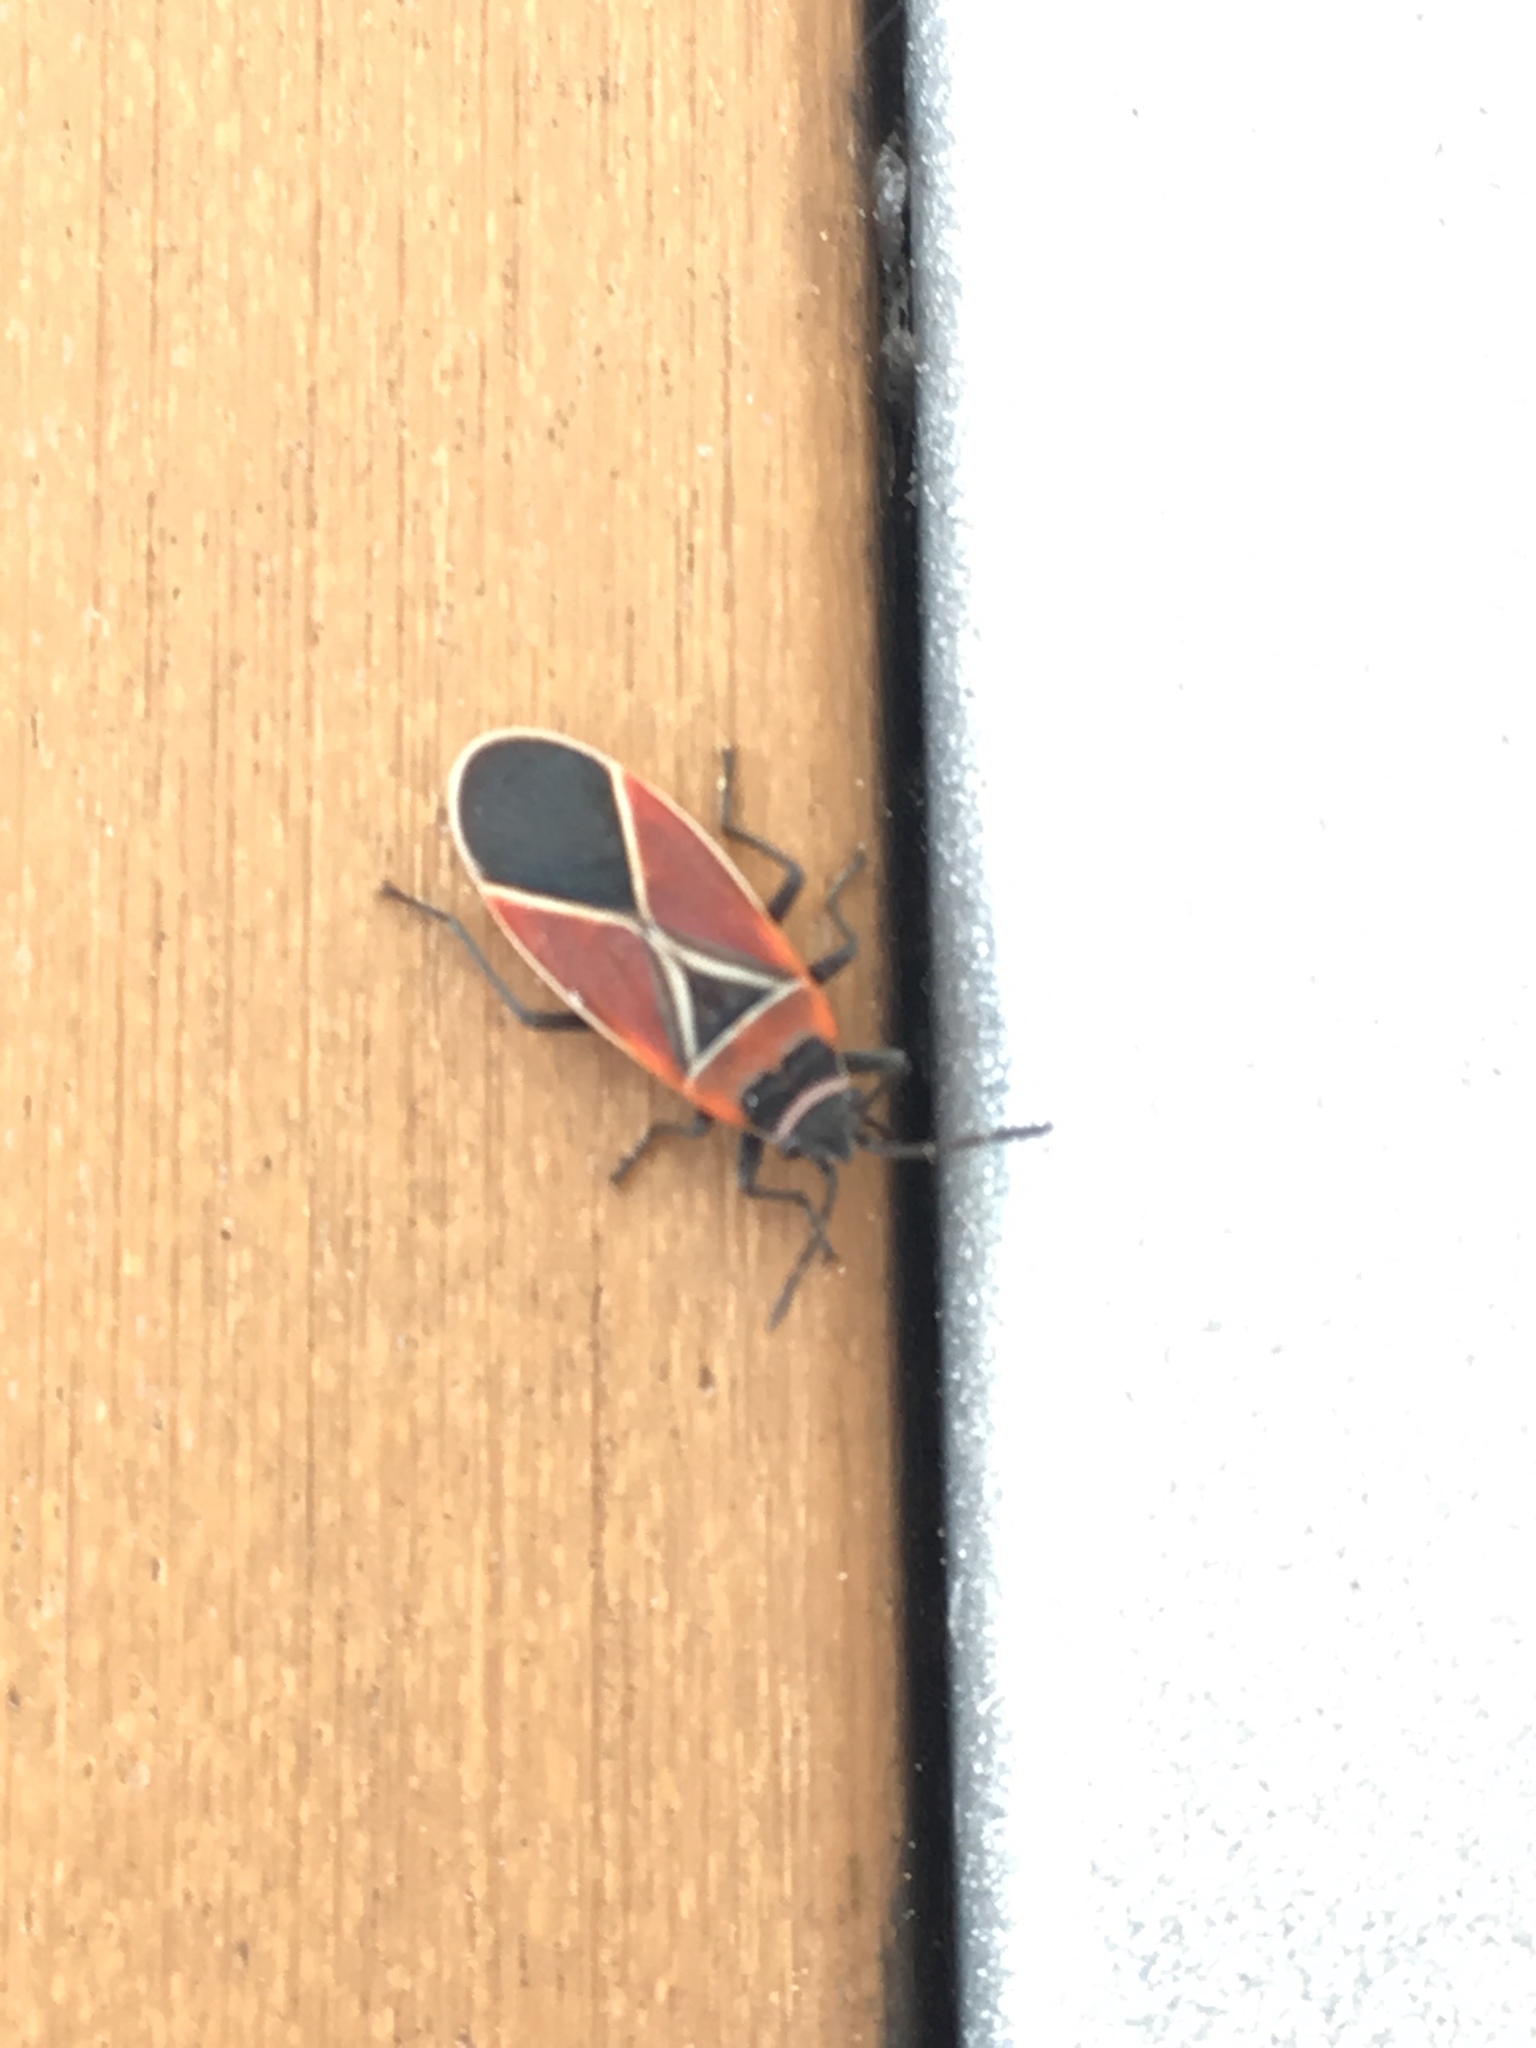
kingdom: Animalia
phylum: Arthropoda
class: Insecta
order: Hemiptera
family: Lygaeidae
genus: Neacoryphus
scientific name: Neacoryphus bicrucis
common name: Lygaeid bug
